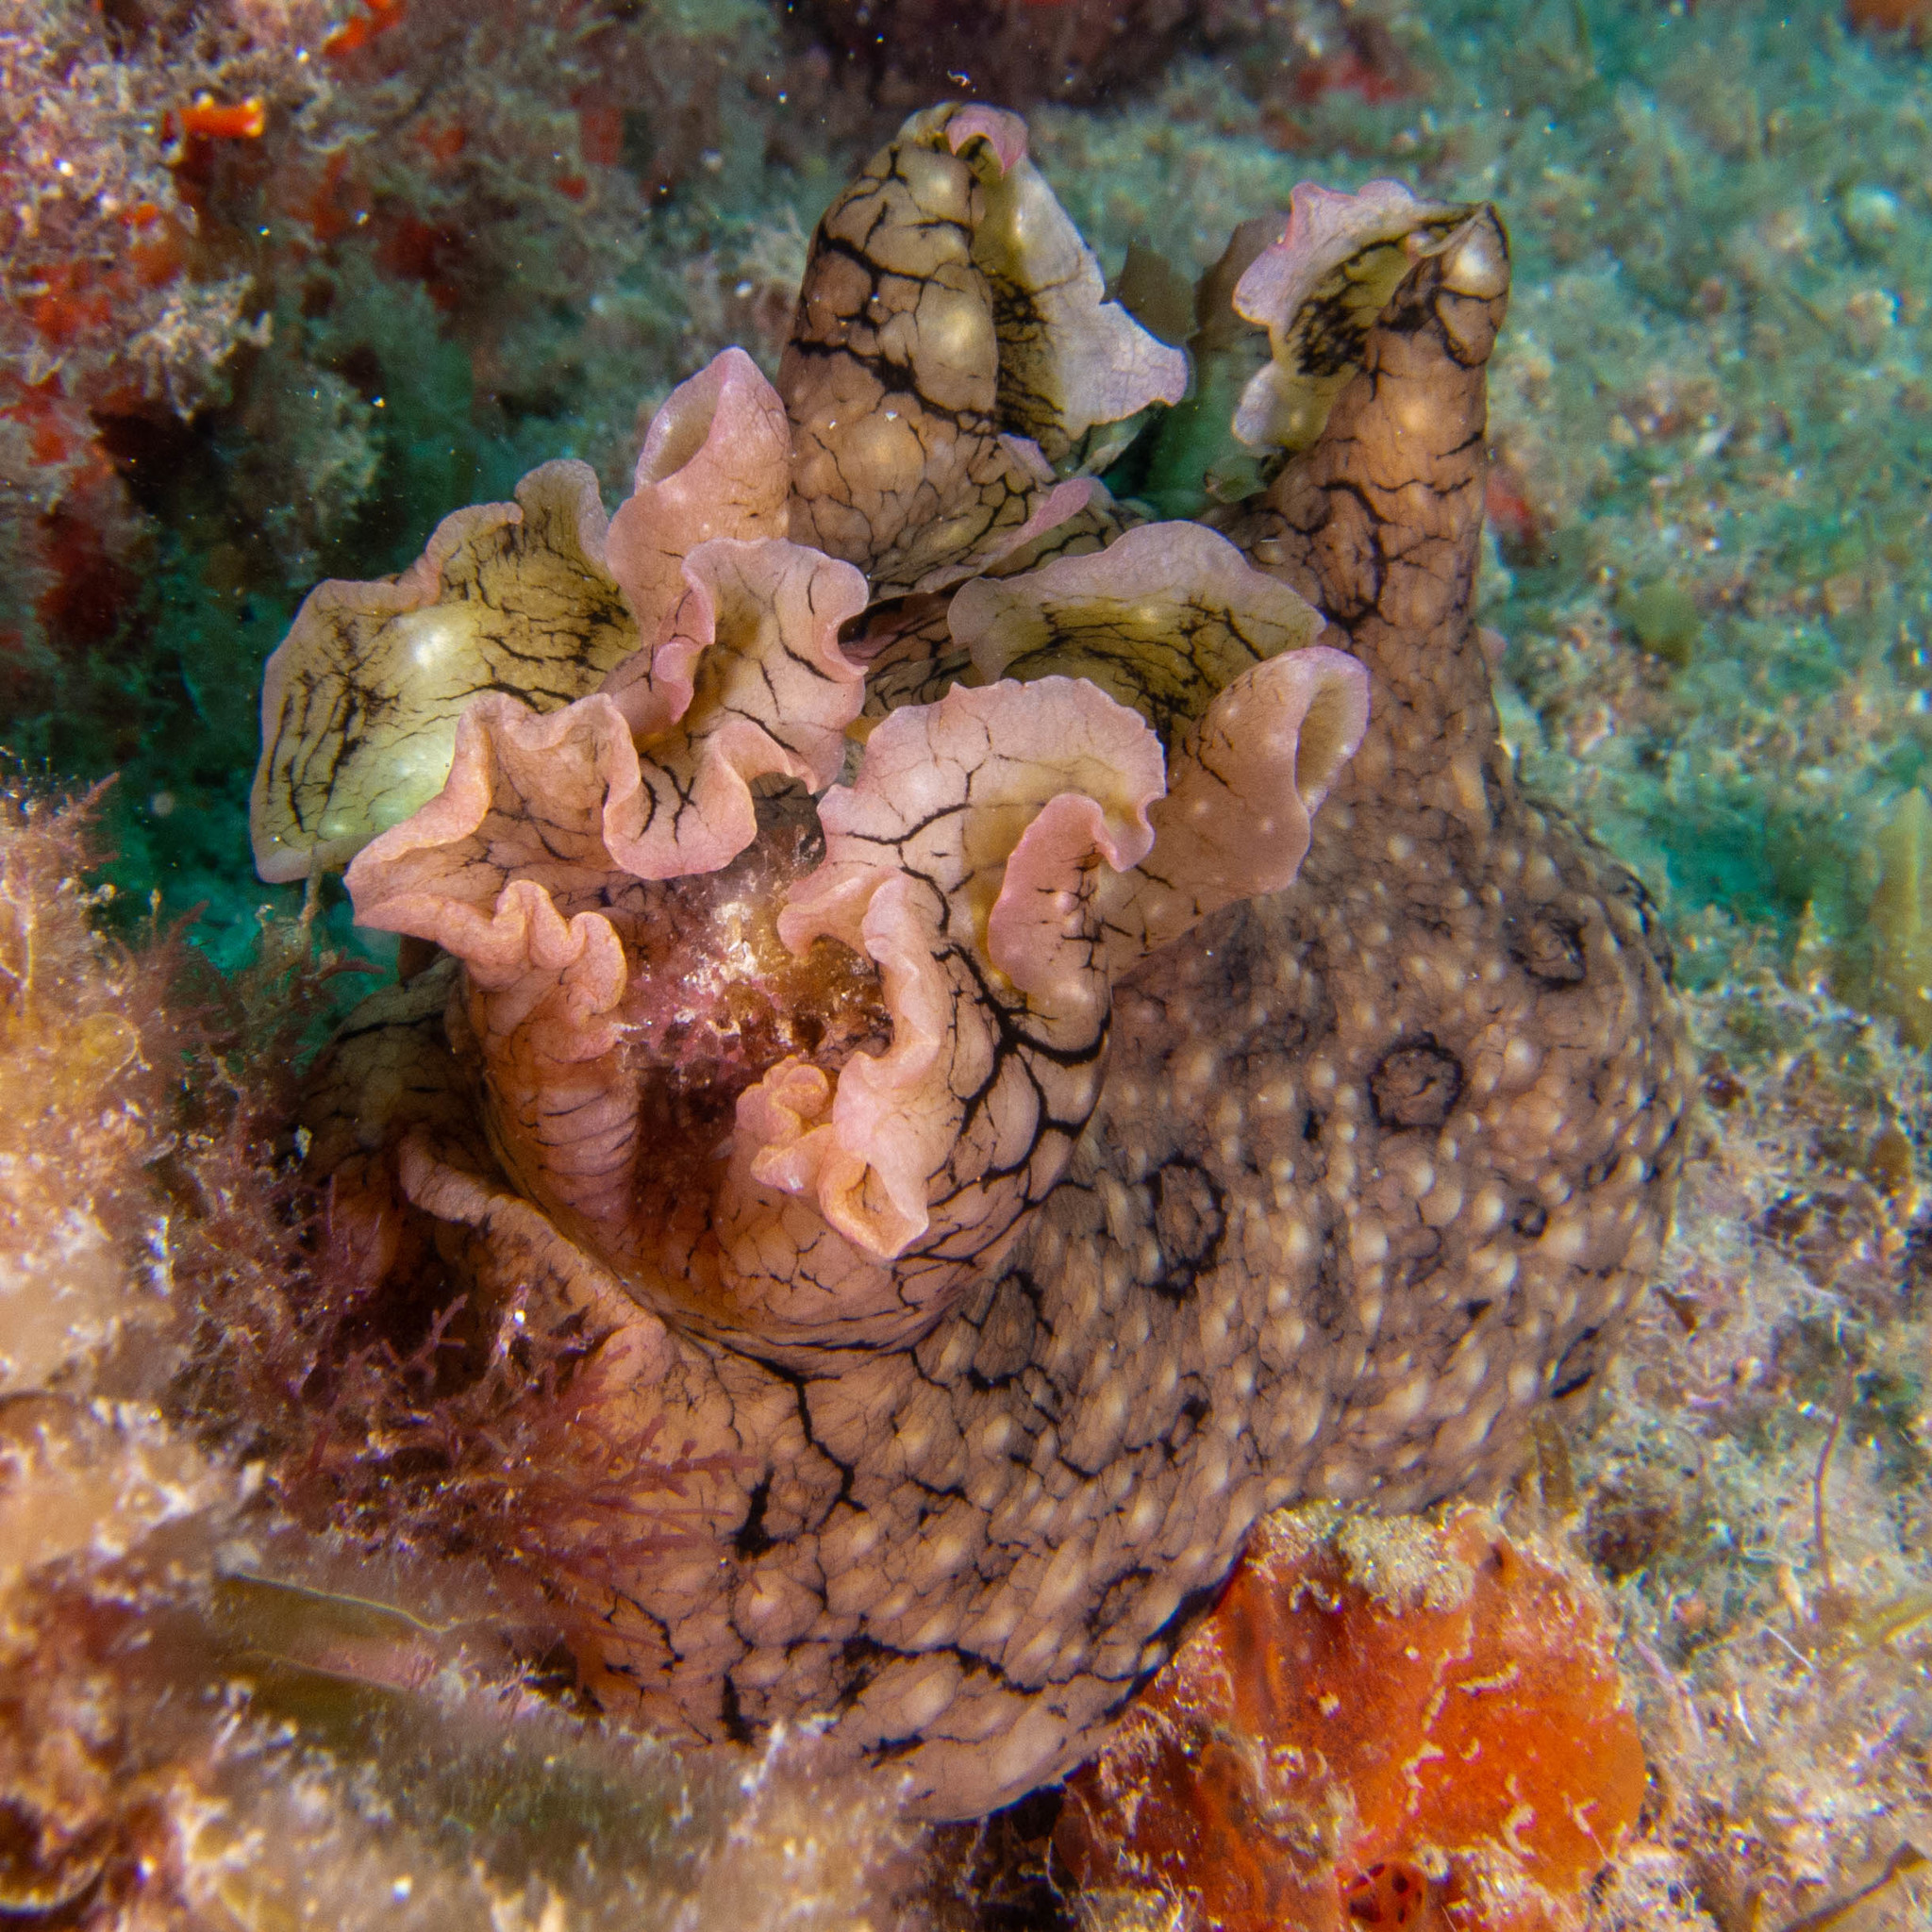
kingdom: Animalia
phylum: Mollusca
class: Gastropoda
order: Aplysiida
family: Aplysiidae
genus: Aplysia
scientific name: Aplysia argus
